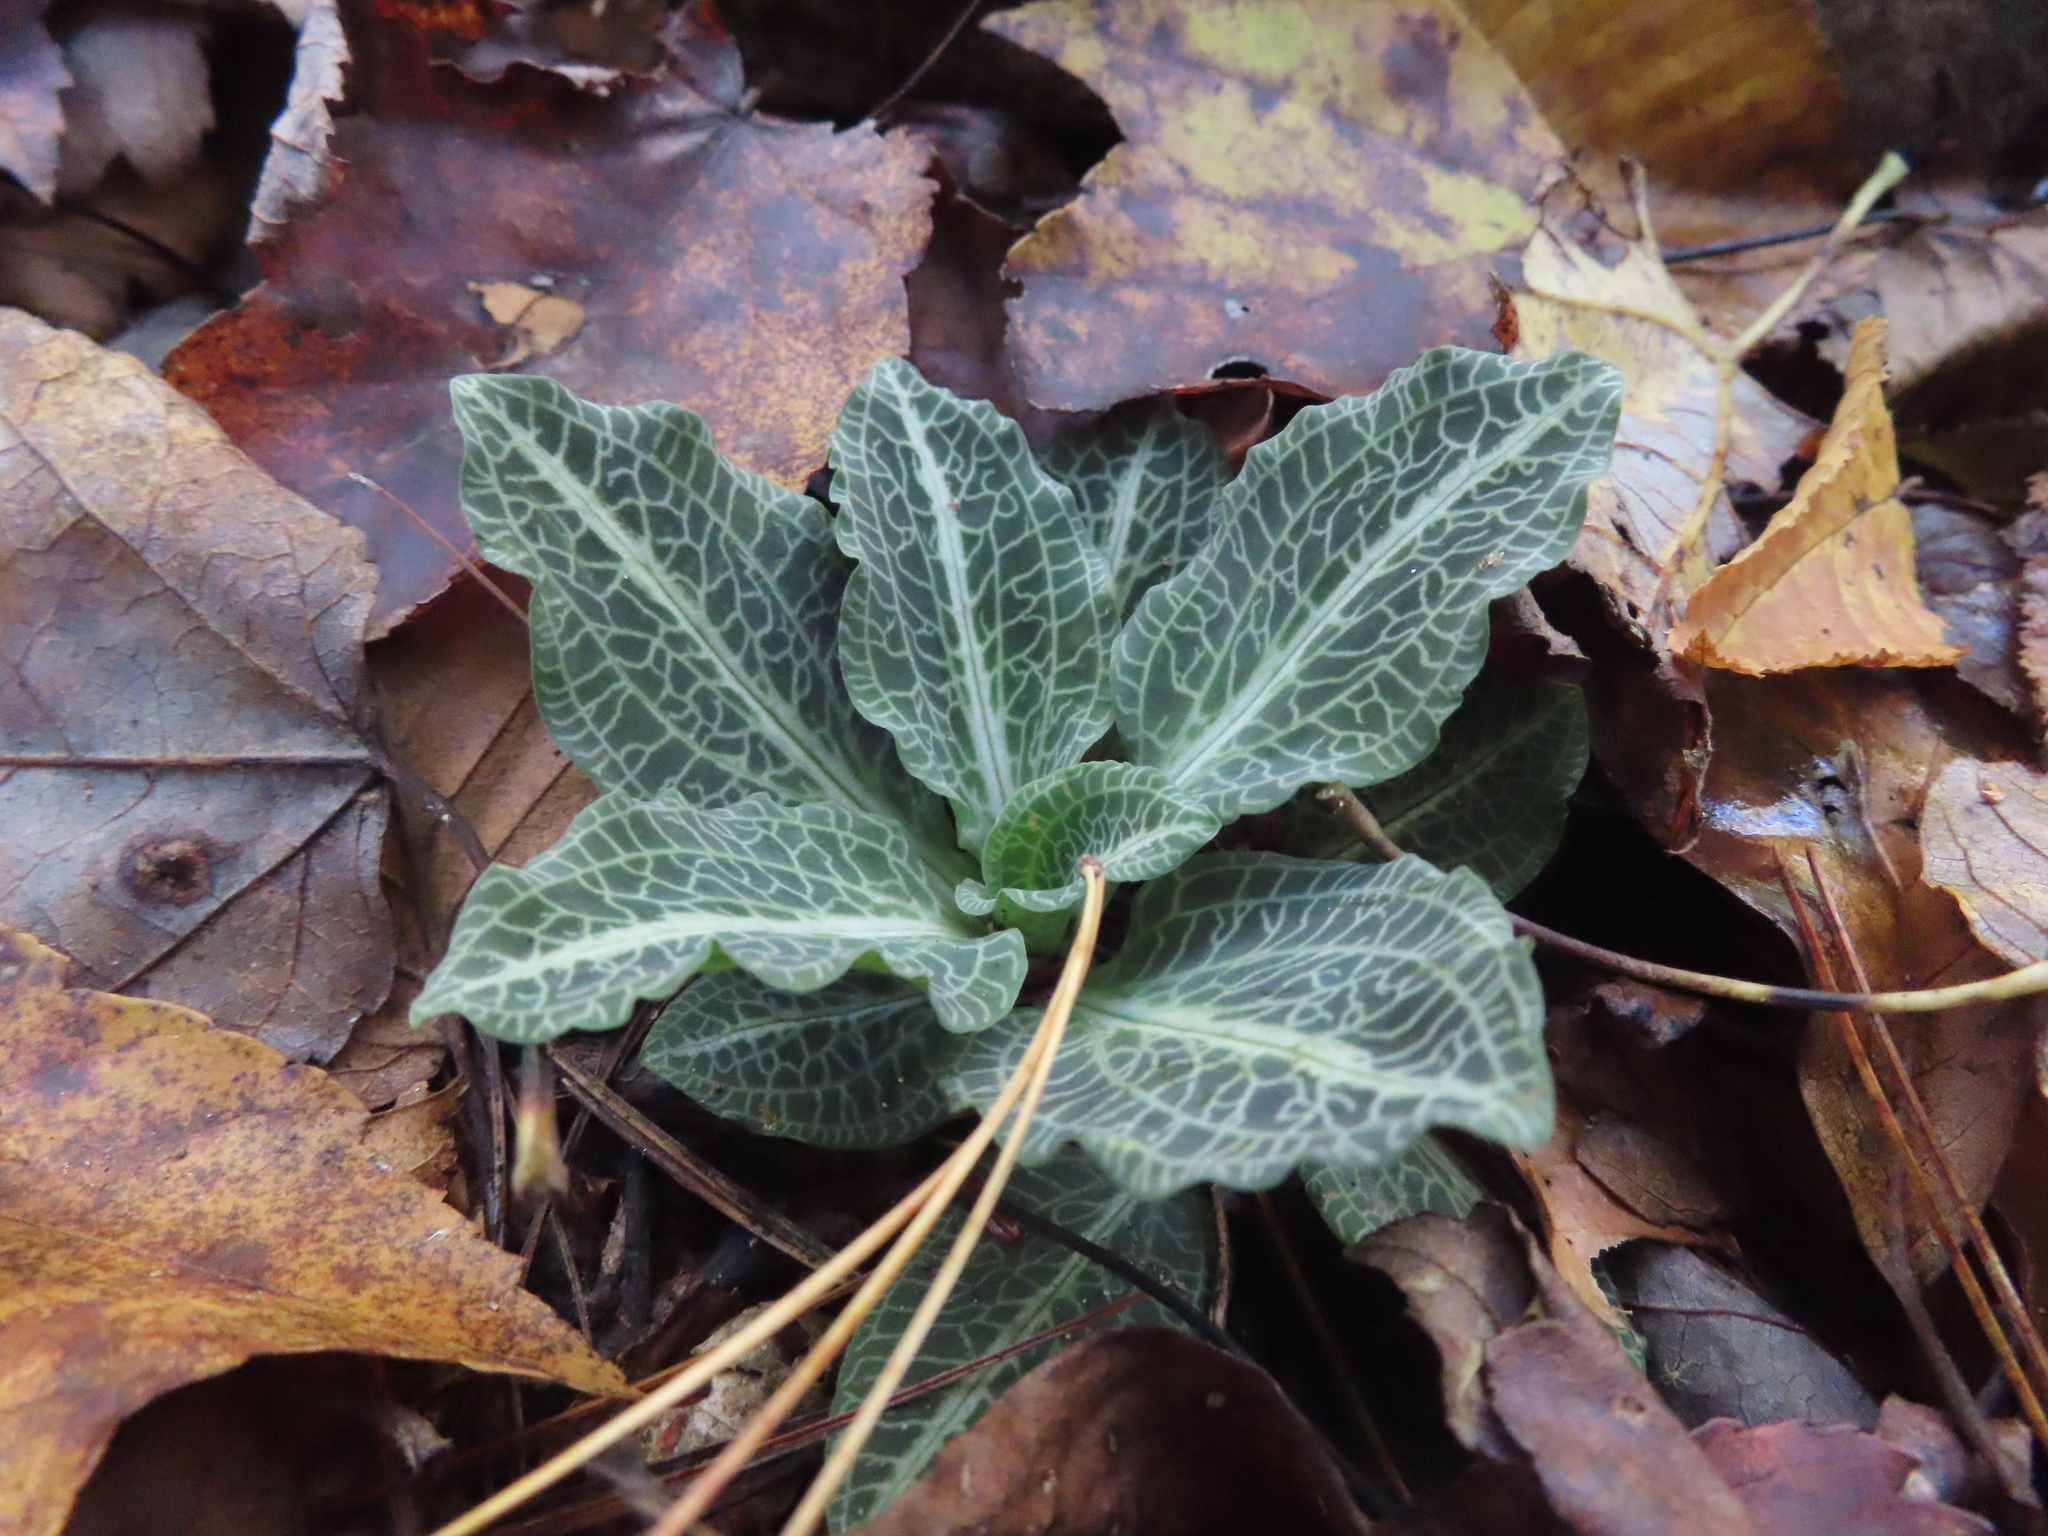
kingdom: Plantae
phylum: Tracheophyta
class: Liliopsida
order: Asparagales
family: Orchidaceae
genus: Goodyera
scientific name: Goodyera pubescens
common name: Downy rattlesnake-plantain
